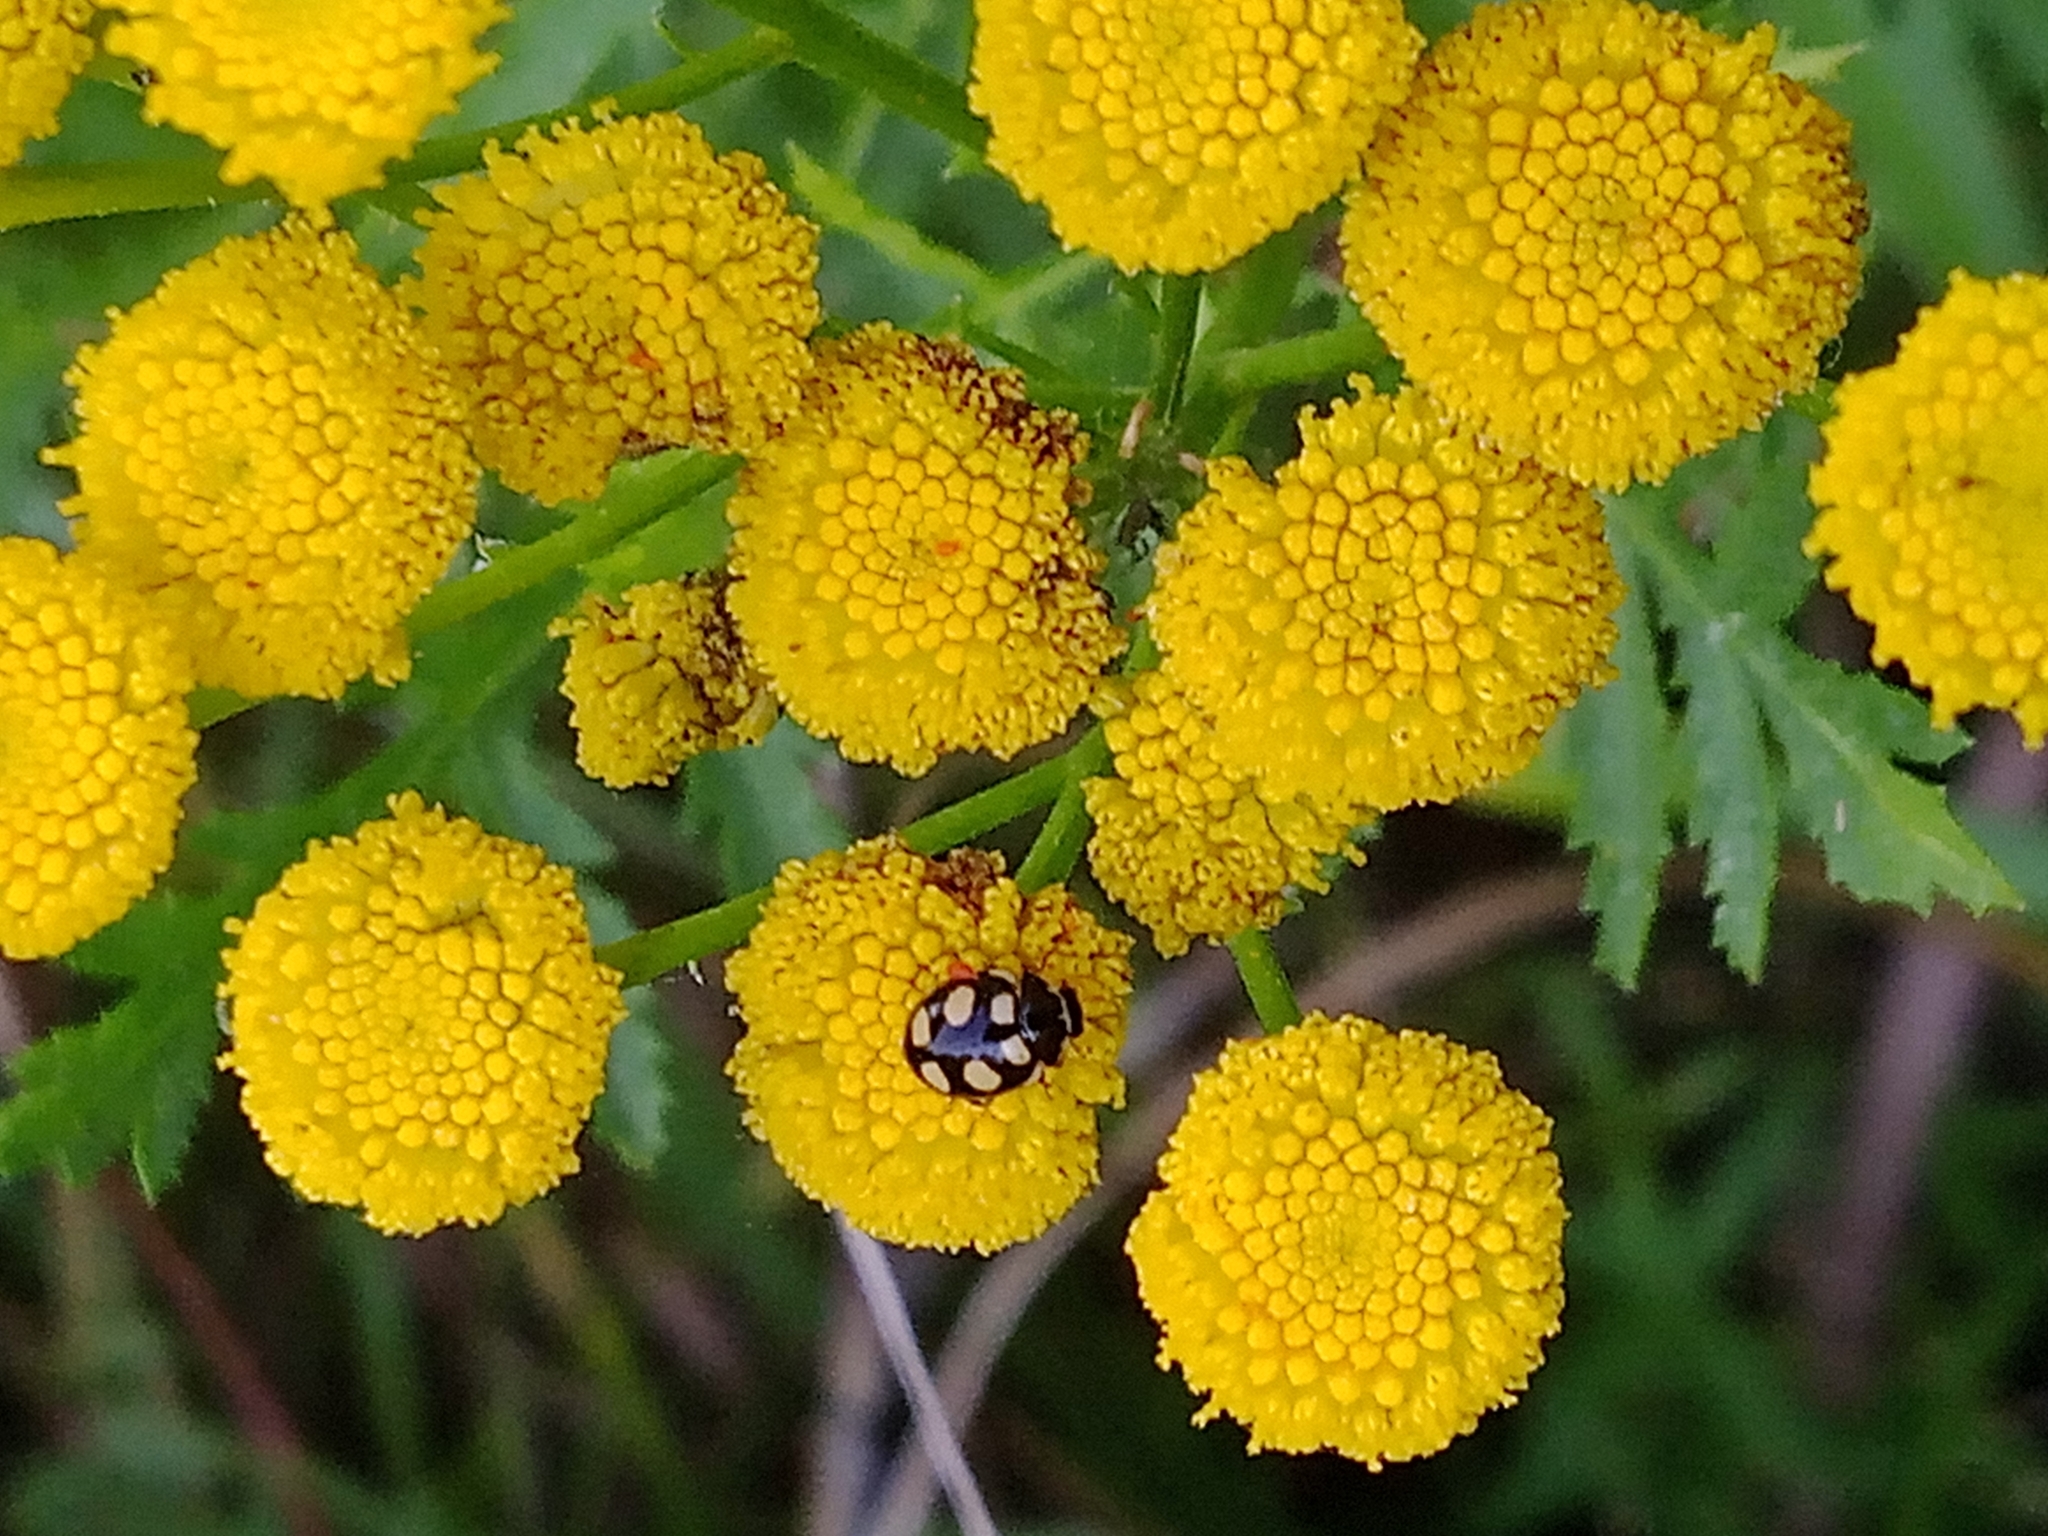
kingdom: Animalia
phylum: Arthropoda
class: Insecta
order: Coleoptera
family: Coccinellidae
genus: Coccinula
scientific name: Coccinula quatuordecimpustulata
